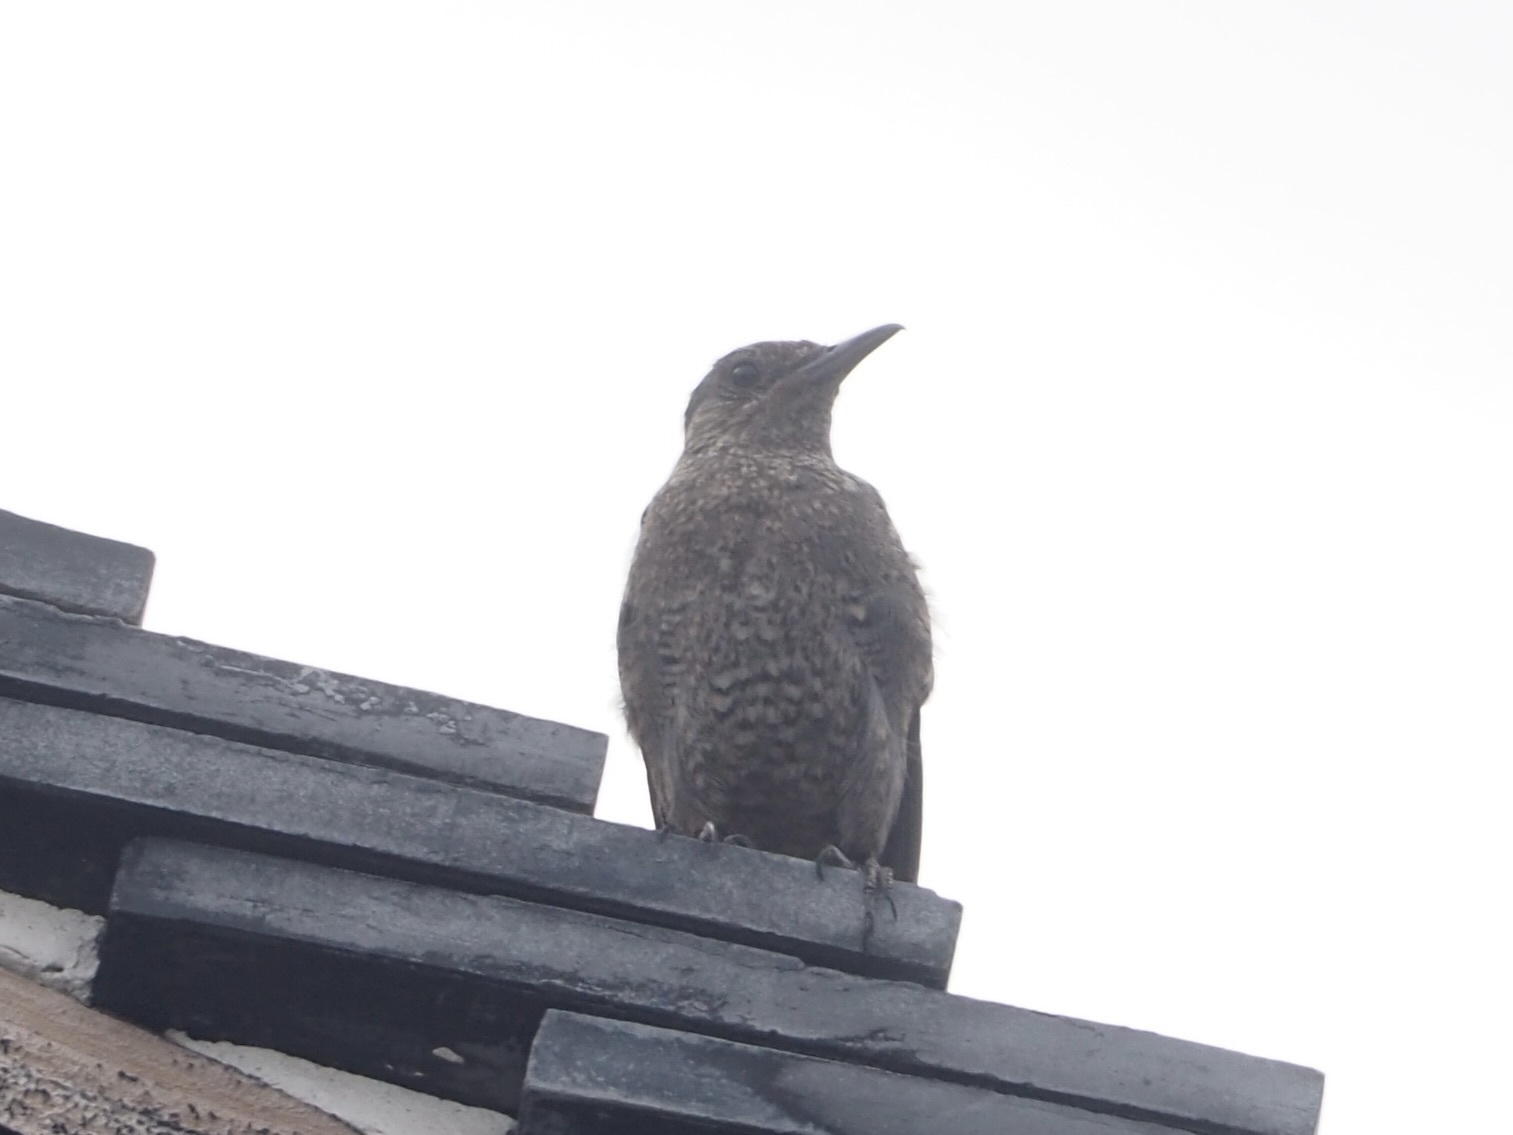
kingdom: Animalia
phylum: Chordata
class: Aves
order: Passeriformes
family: Muscicapidae
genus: Monticola
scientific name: Monticola solitarius
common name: Blue rock thrush
